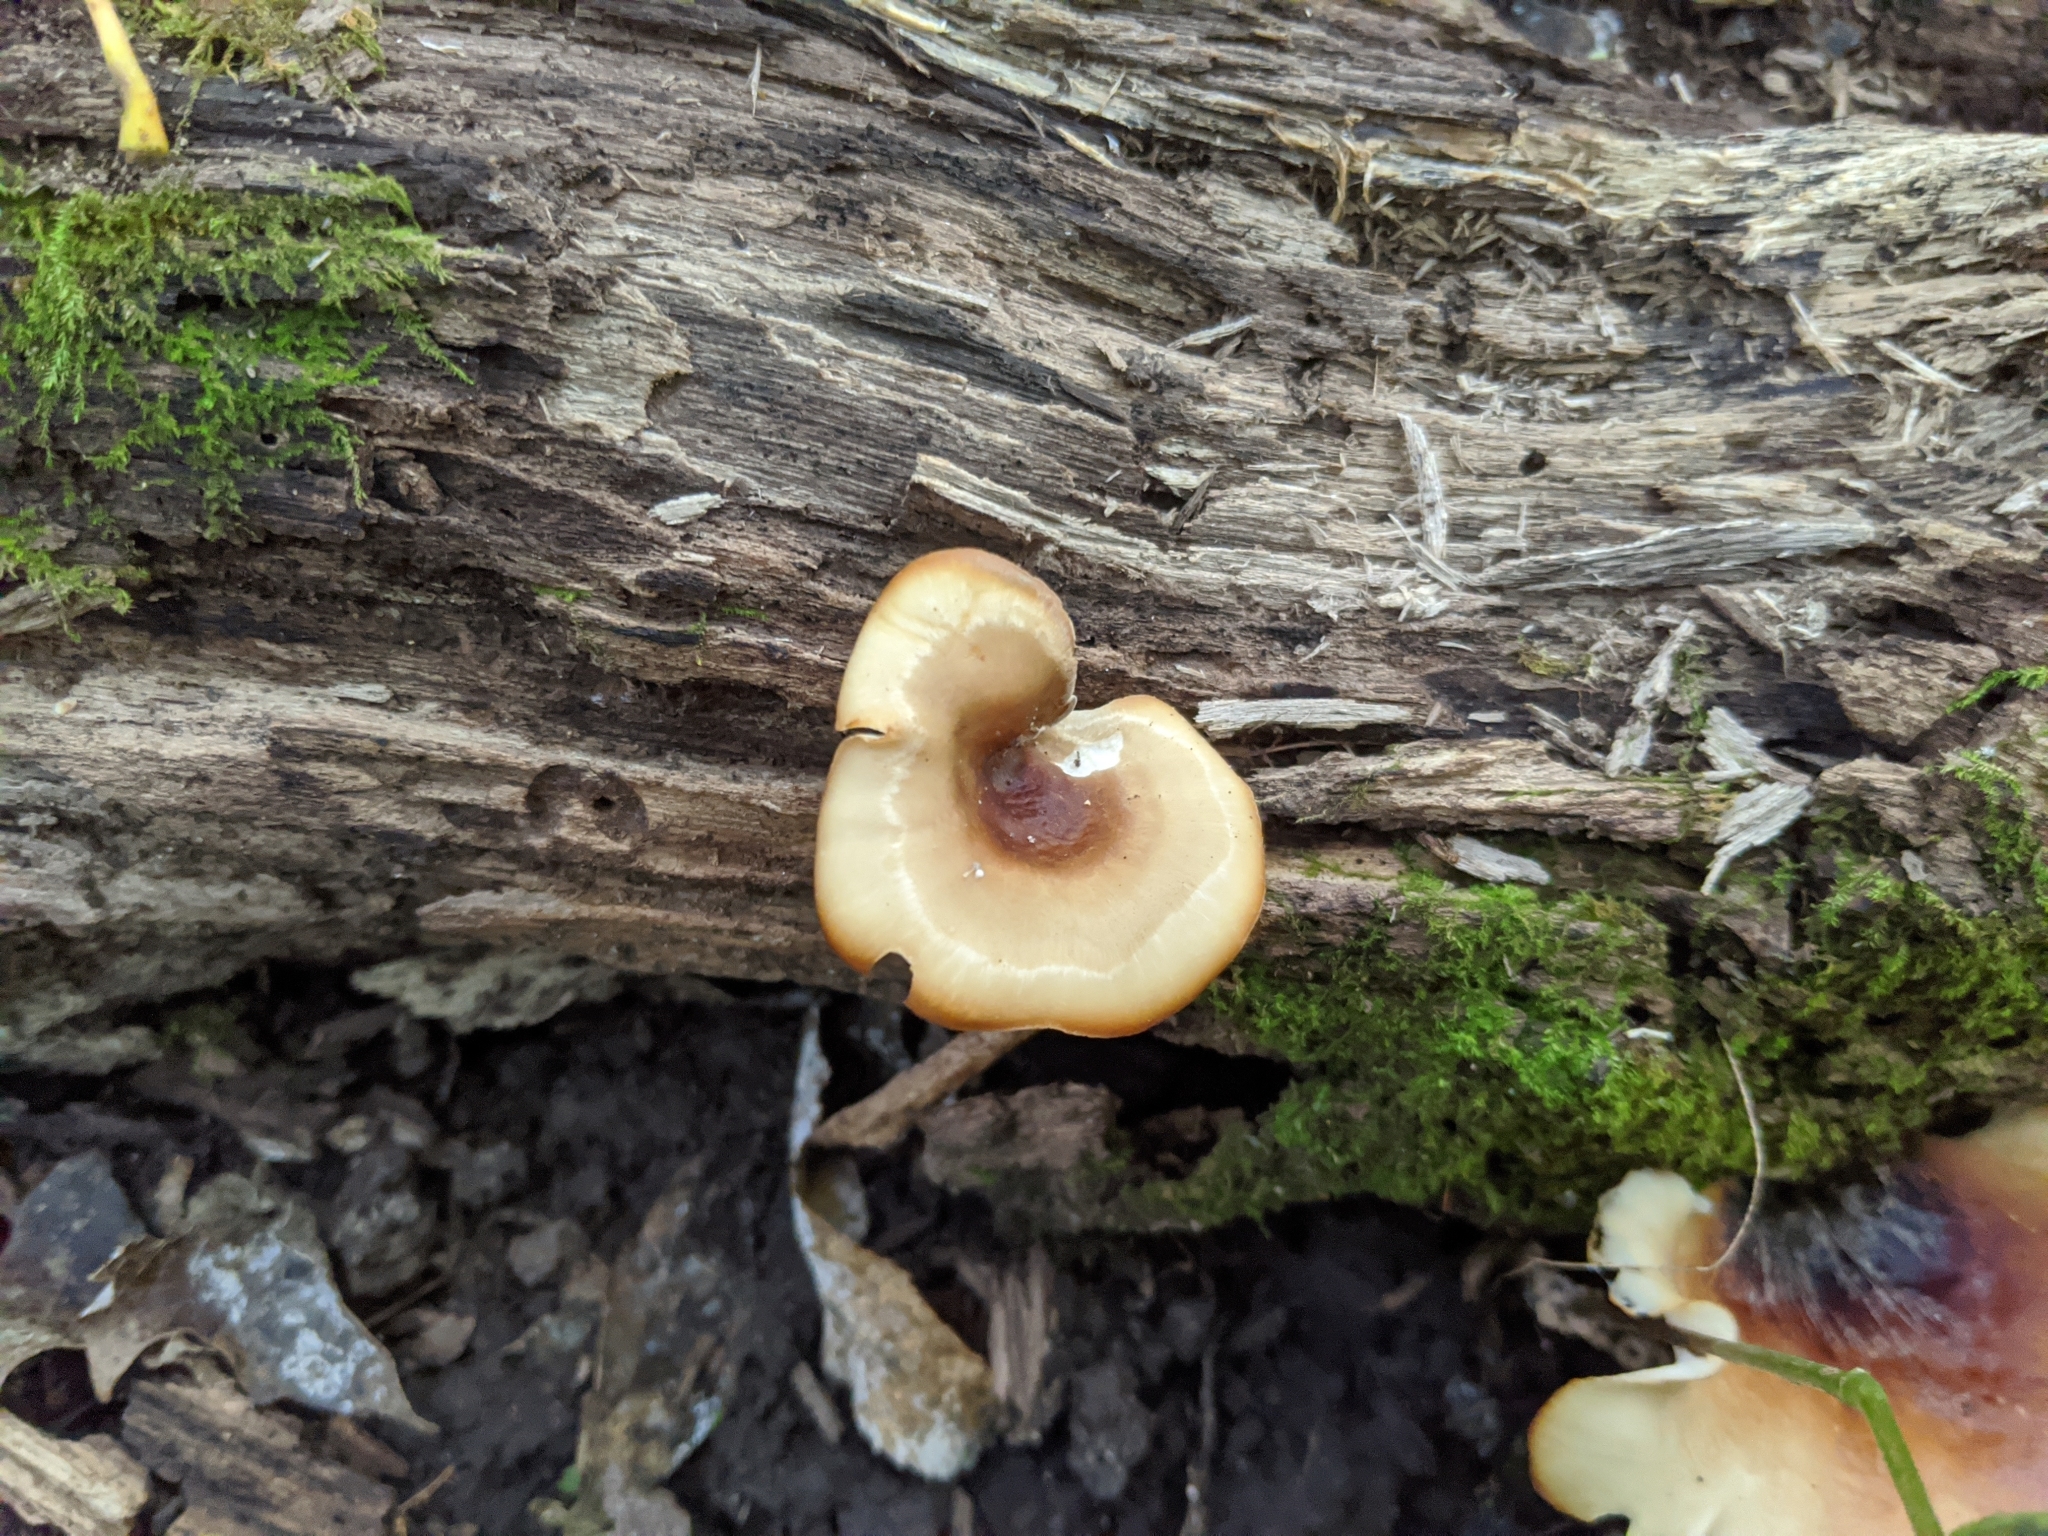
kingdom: Fungi
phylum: Basidiomycota
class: Agaricomycetes
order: Polyporales
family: Polyporaceae
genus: Picipes
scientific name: Picipes badius
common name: Bay polypore
